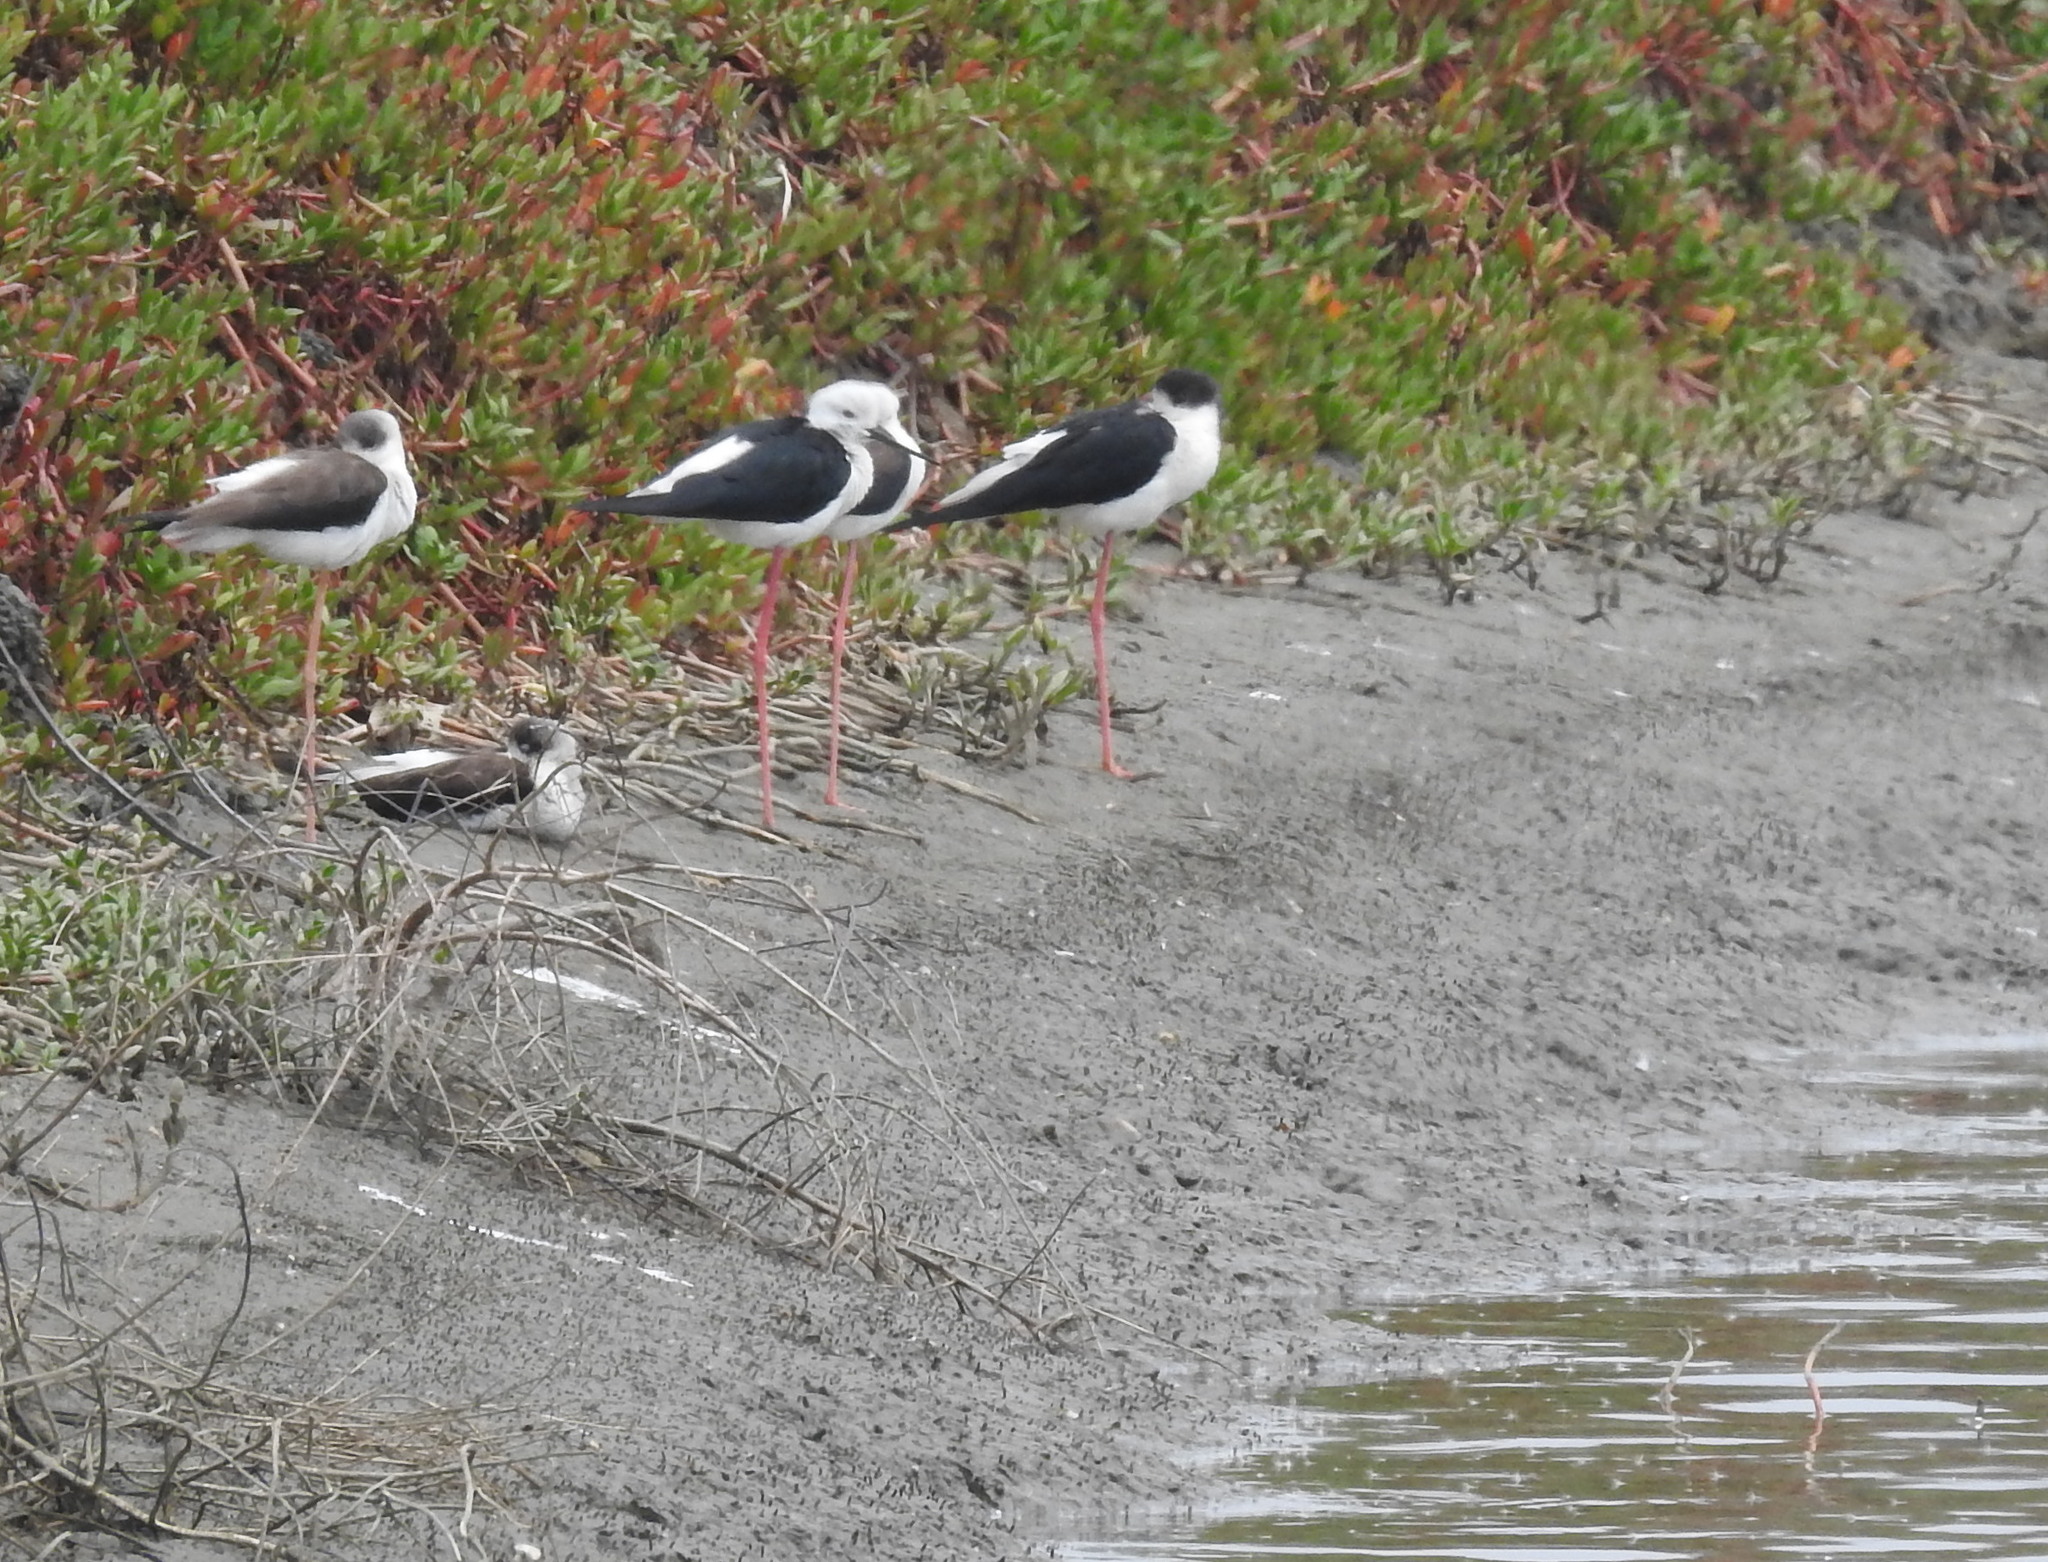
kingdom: Animalia
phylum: Chordata
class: Aves
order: Charadriiformes
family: Recurvirostridae
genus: Himantopus
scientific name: Himantopus himantopus
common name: Black-winged stilt
